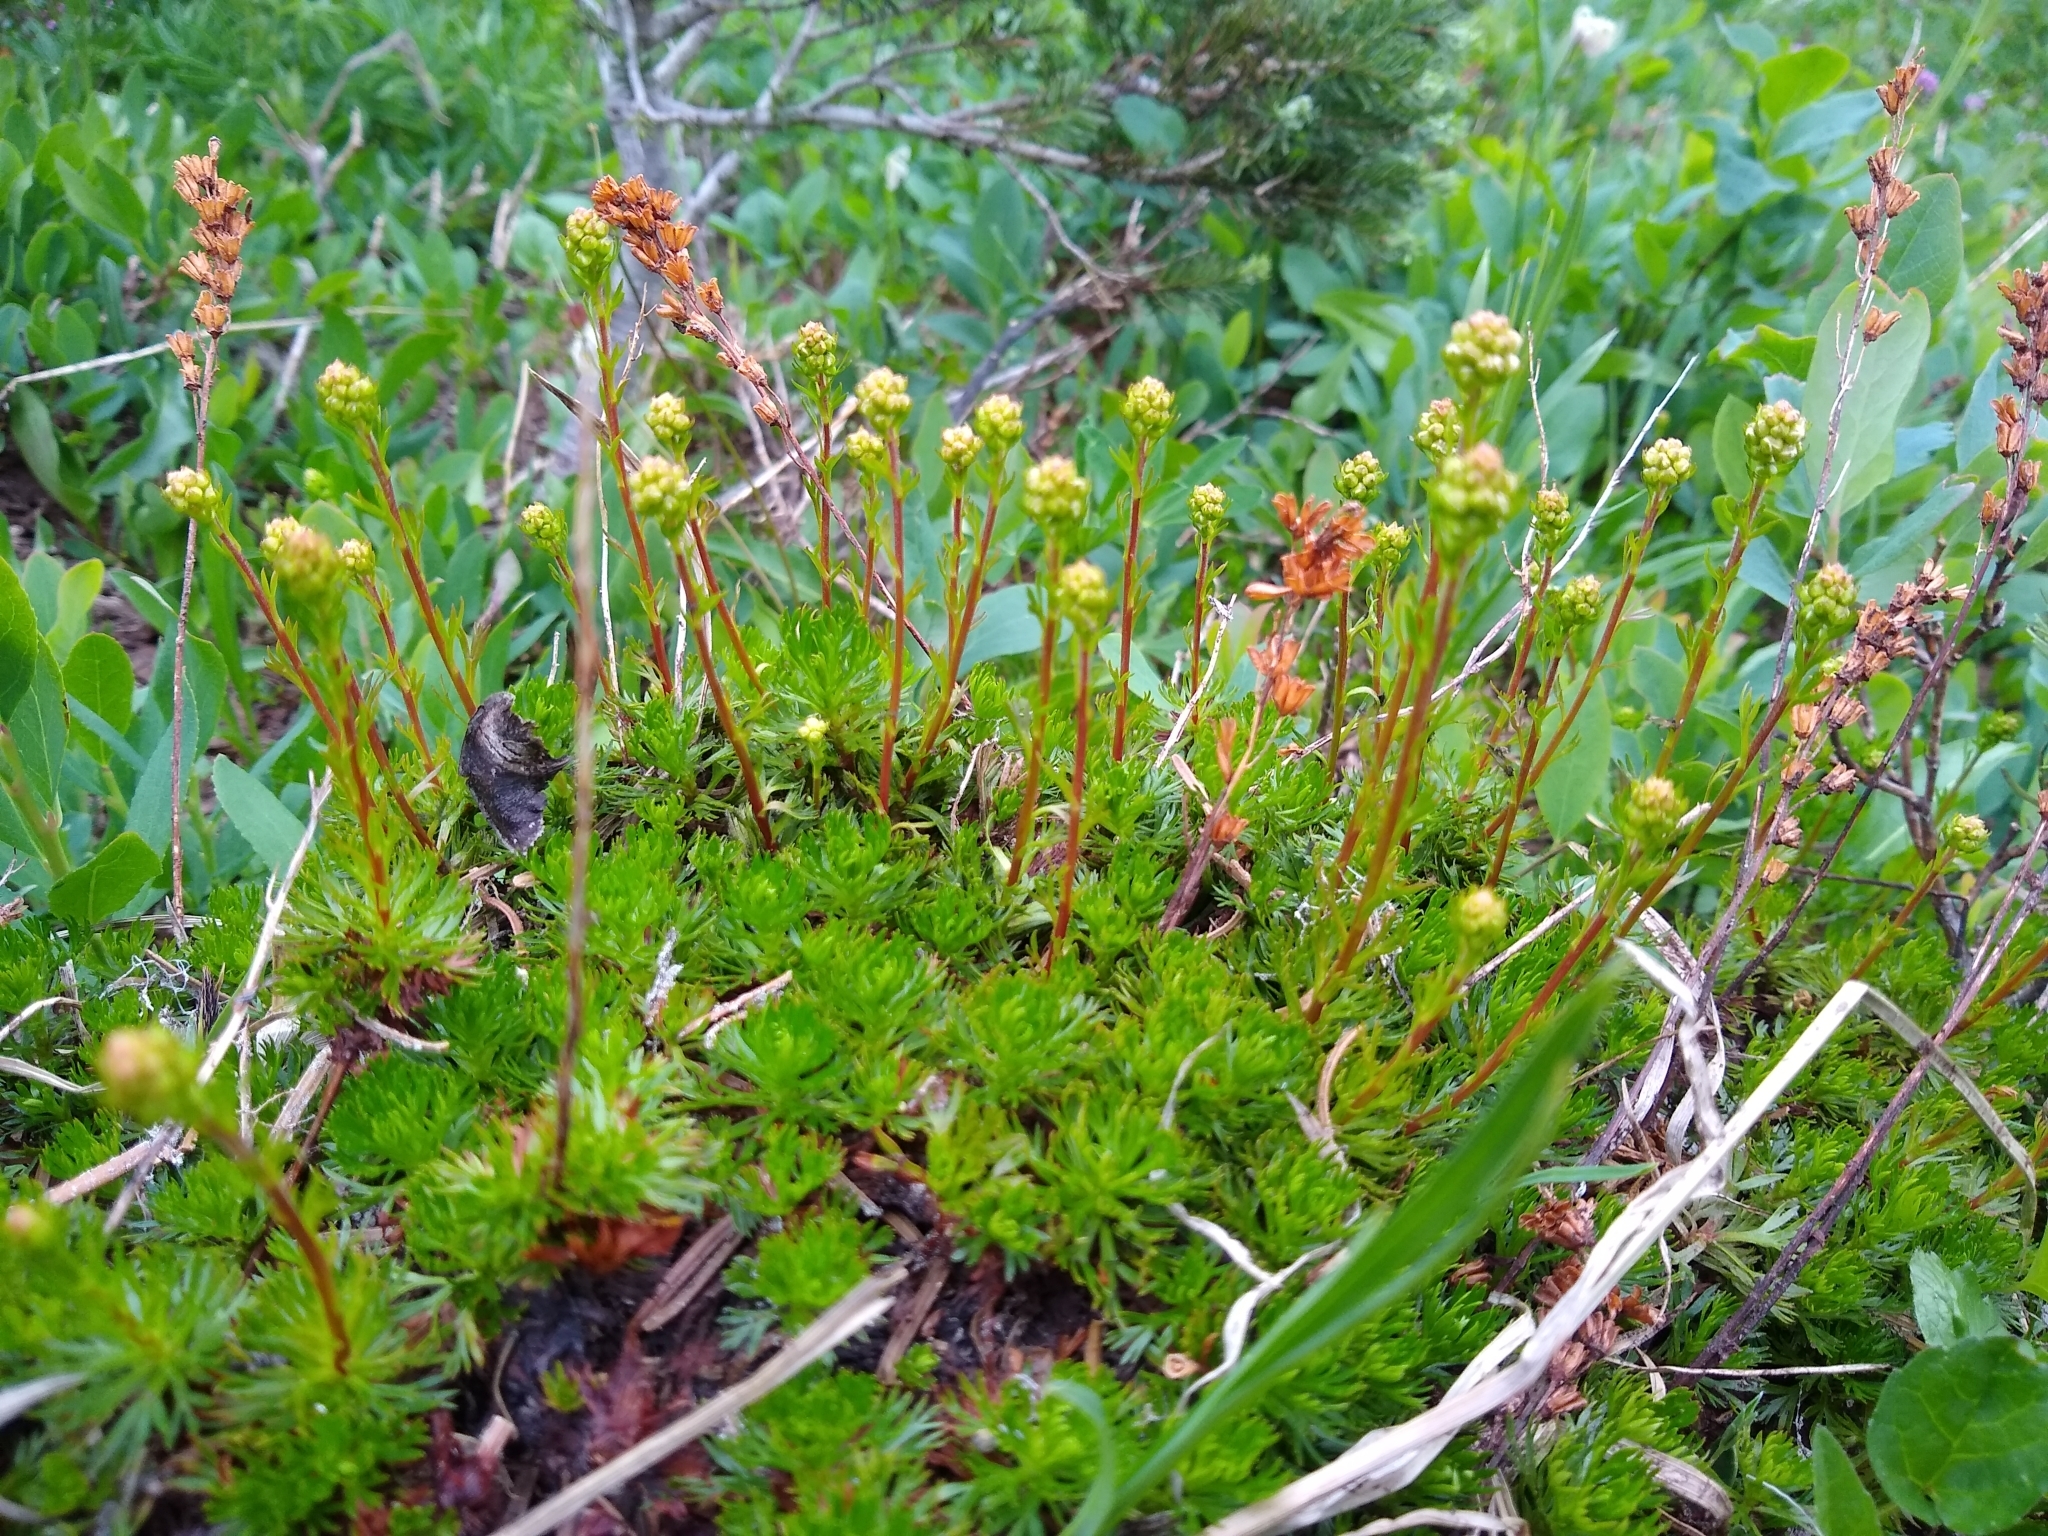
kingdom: Plantae
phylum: Tracheophyta
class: Magnoliopsida
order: Rosales
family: Rosaceae
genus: Luetkea
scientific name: Luetkea pectinata
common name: Partridgefoot
